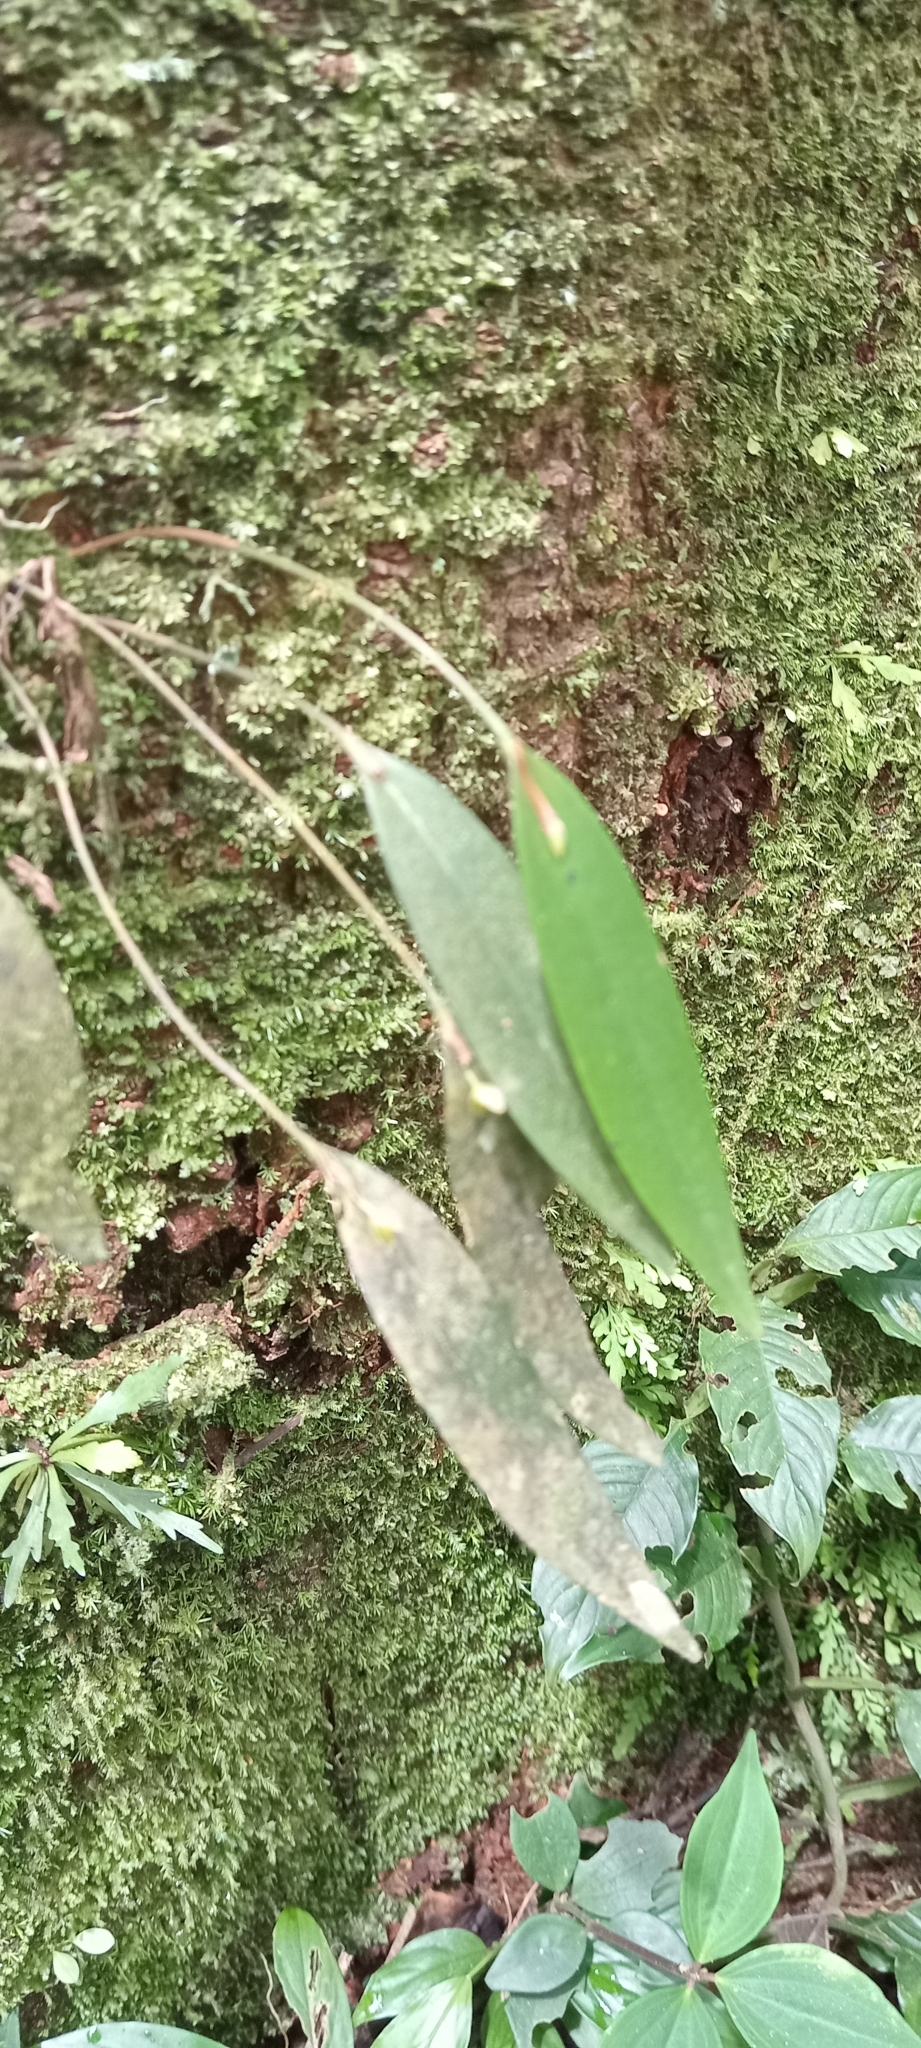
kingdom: Plantae
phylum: Tracheophyta
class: Liliopsida
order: Asparagales
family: Orchidaceae
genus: Pleurothallis
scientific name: Pleurothallis discoidea
